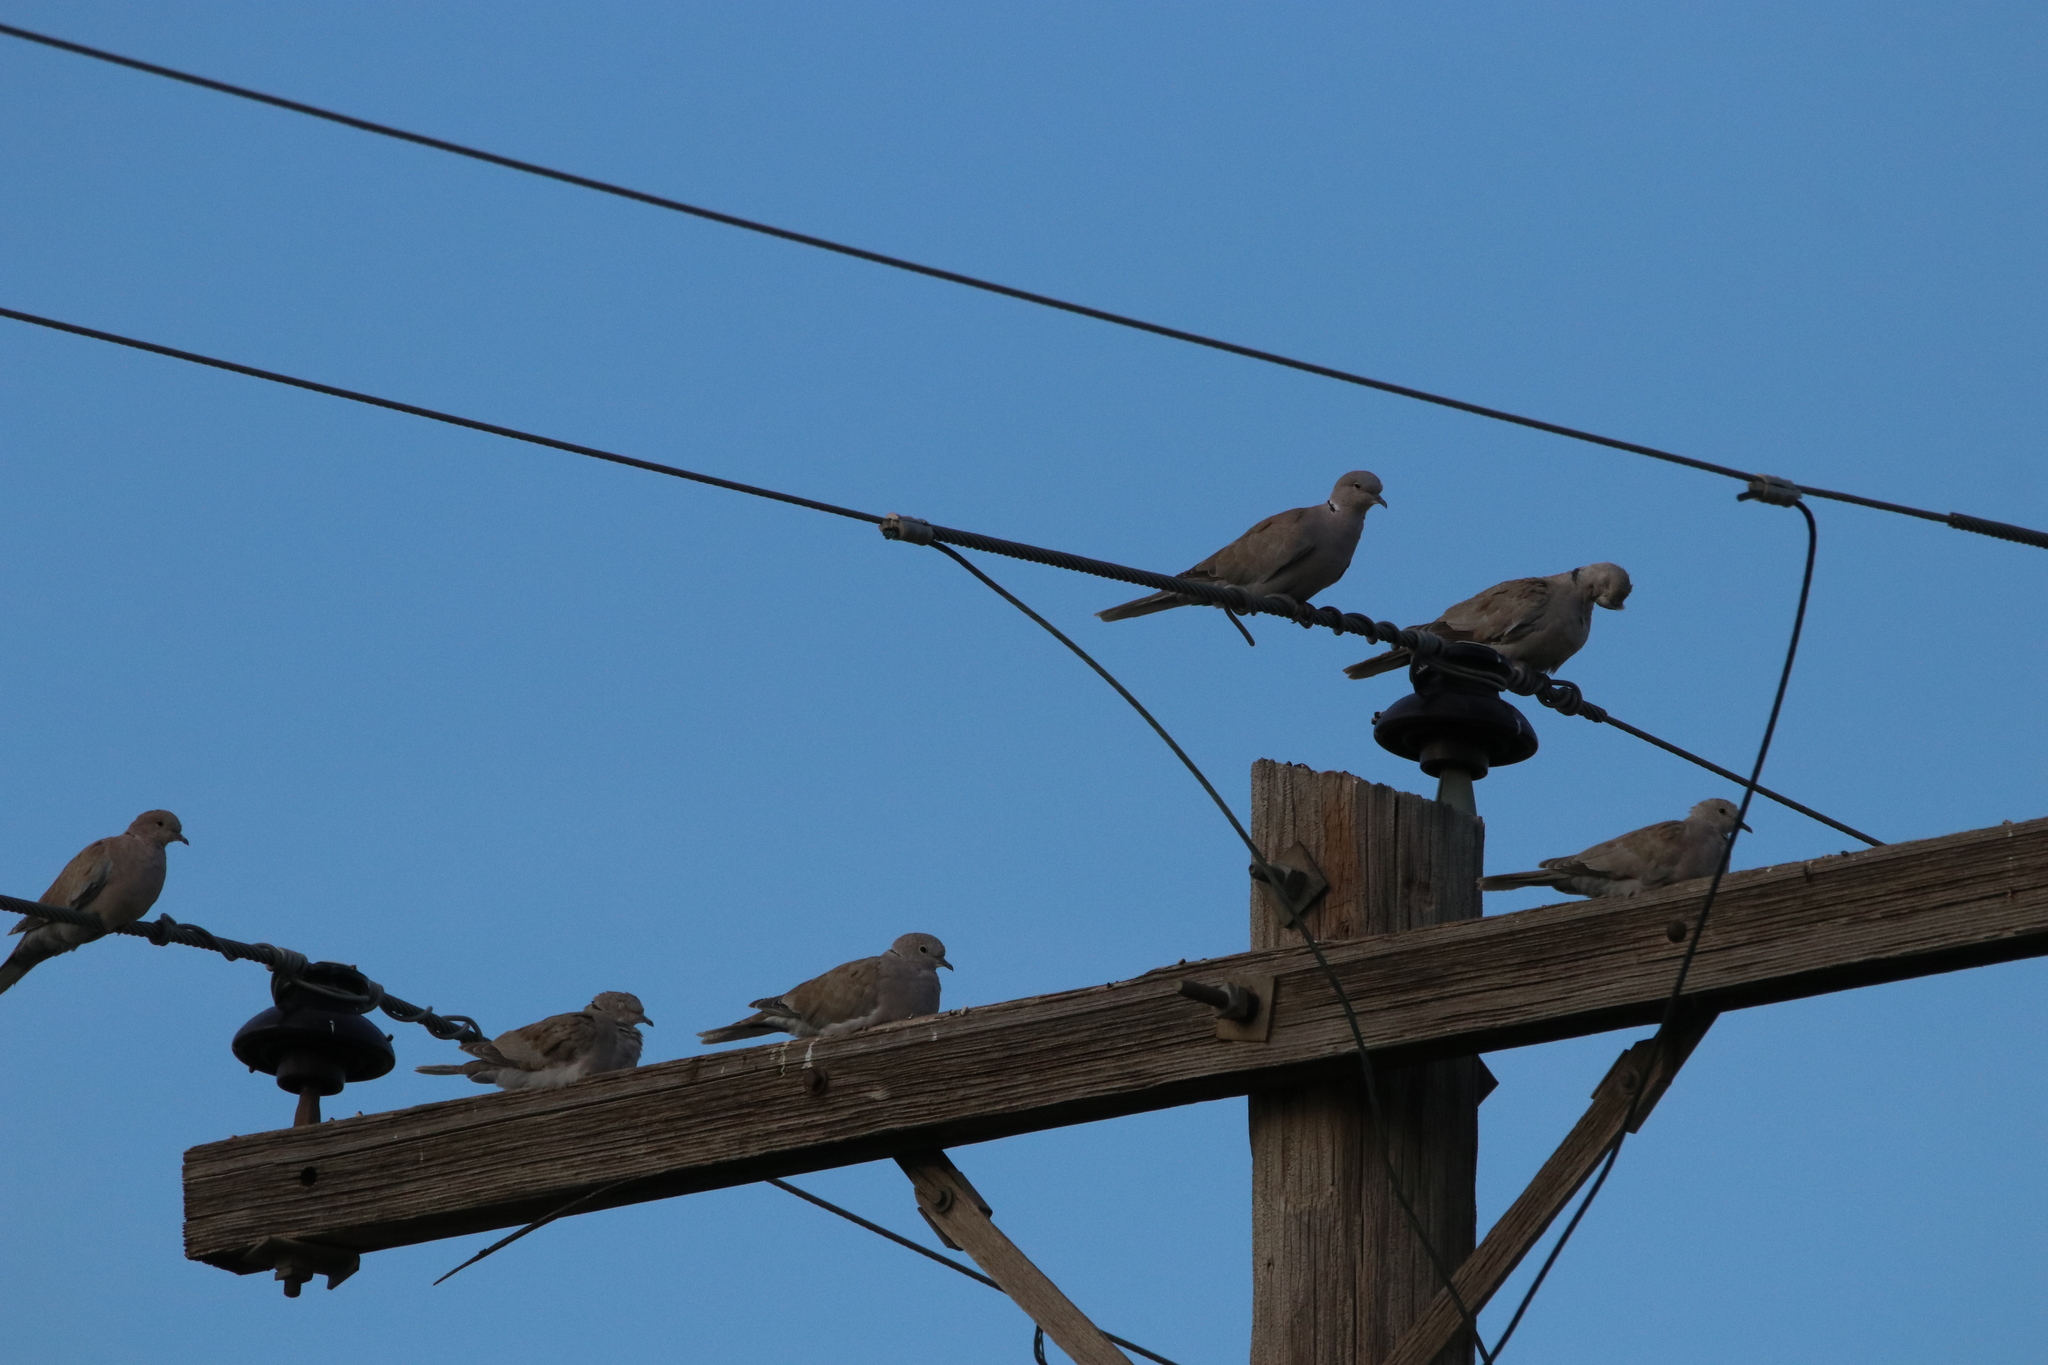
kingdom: Animalia
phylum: Chordata
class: Aves
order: Columbiformes
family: Columbidae
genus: Streptopelia
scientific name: Streptopelia decaocto
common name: Eurasian collared dove
